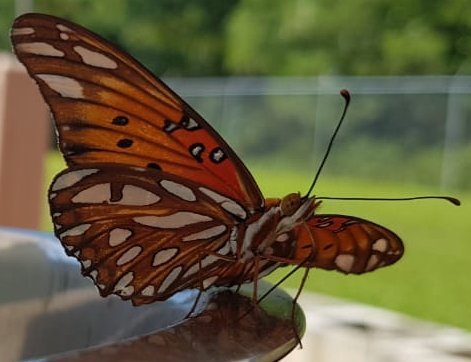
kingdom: Animalia
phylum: Arthropoda
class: Insecta
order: Lepidoptera
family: Nymphalidae
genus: Dione
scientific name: Dione vanillae
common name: Gulf fritillary
